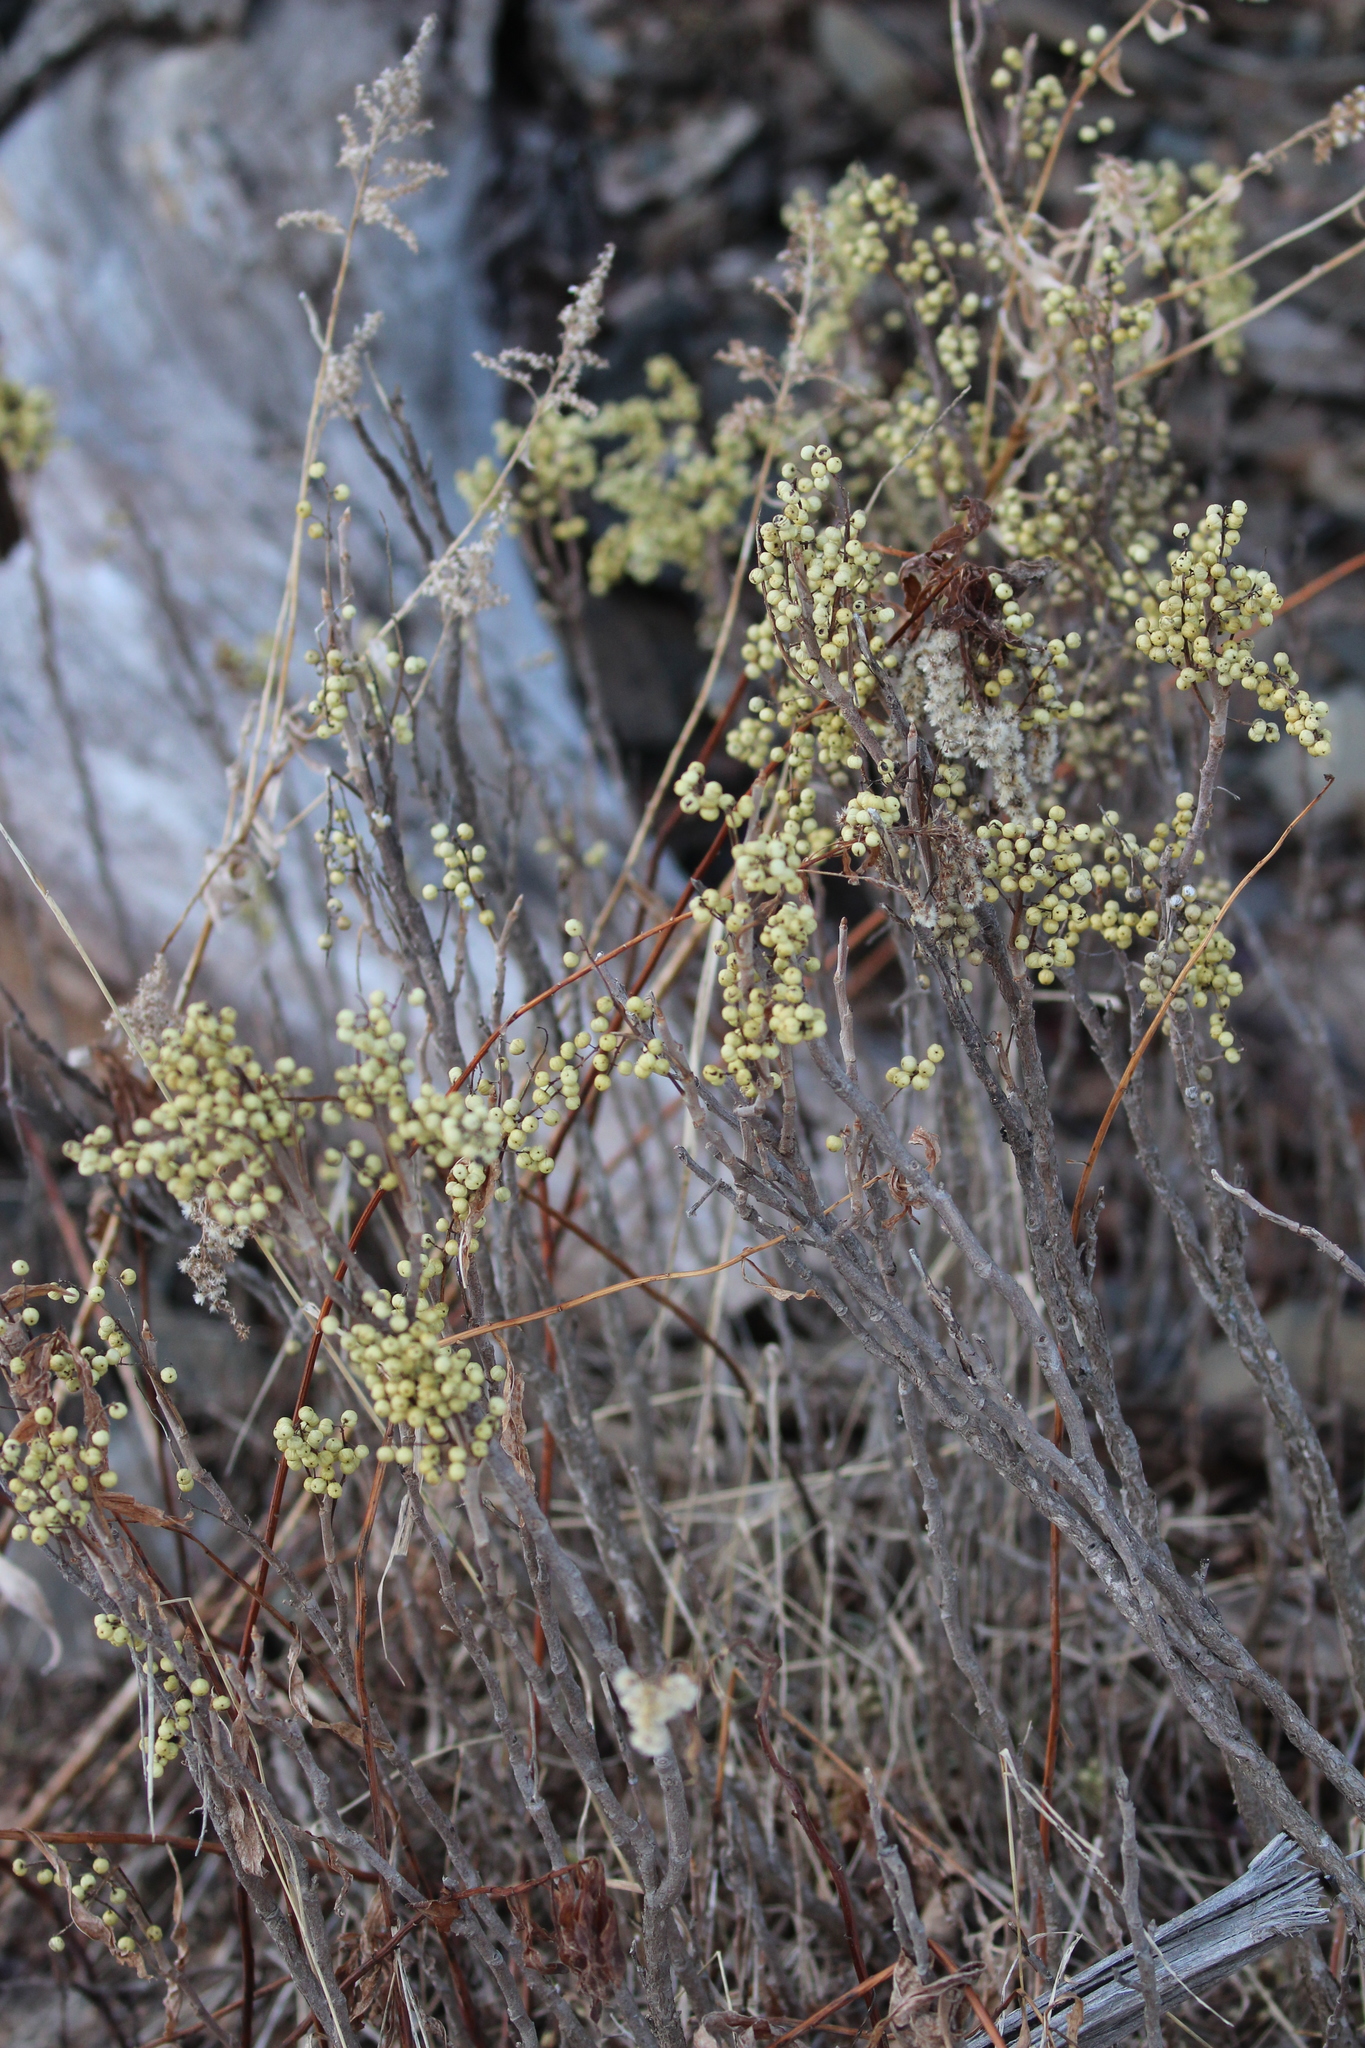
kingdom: Plantae
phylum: Tracheophyta
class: Magnoliopsida
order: Sapindales
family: Anacardiaceae
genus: Toxicodendron
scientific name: Toxicodendron rydbergii
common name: Rydberg's poison-ivy
